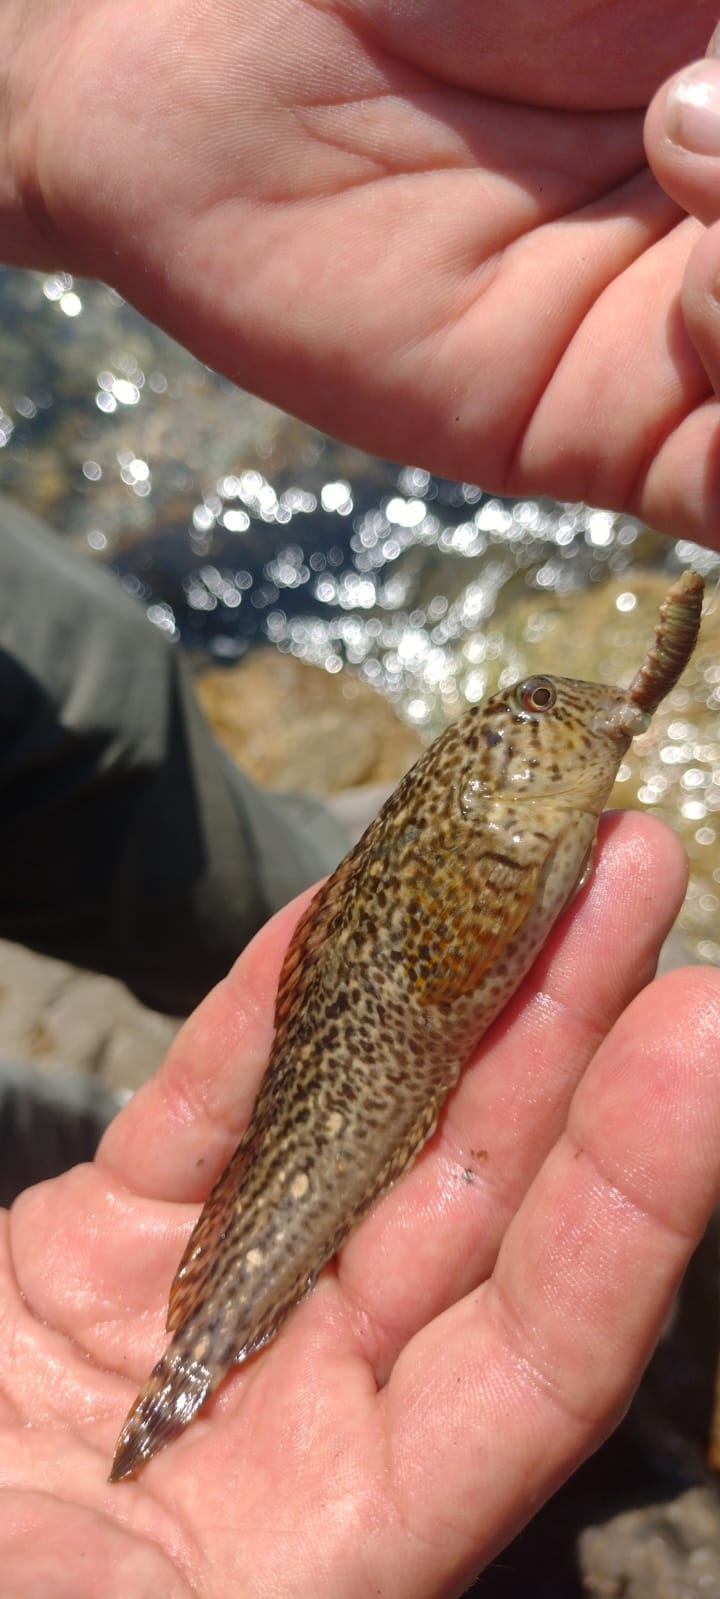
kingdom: Animalia
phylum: Chordata
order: Perciformes
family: Blenniidae
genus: Parablennius
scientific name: Parablennius sanguinolentus
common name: Black sea blenny
